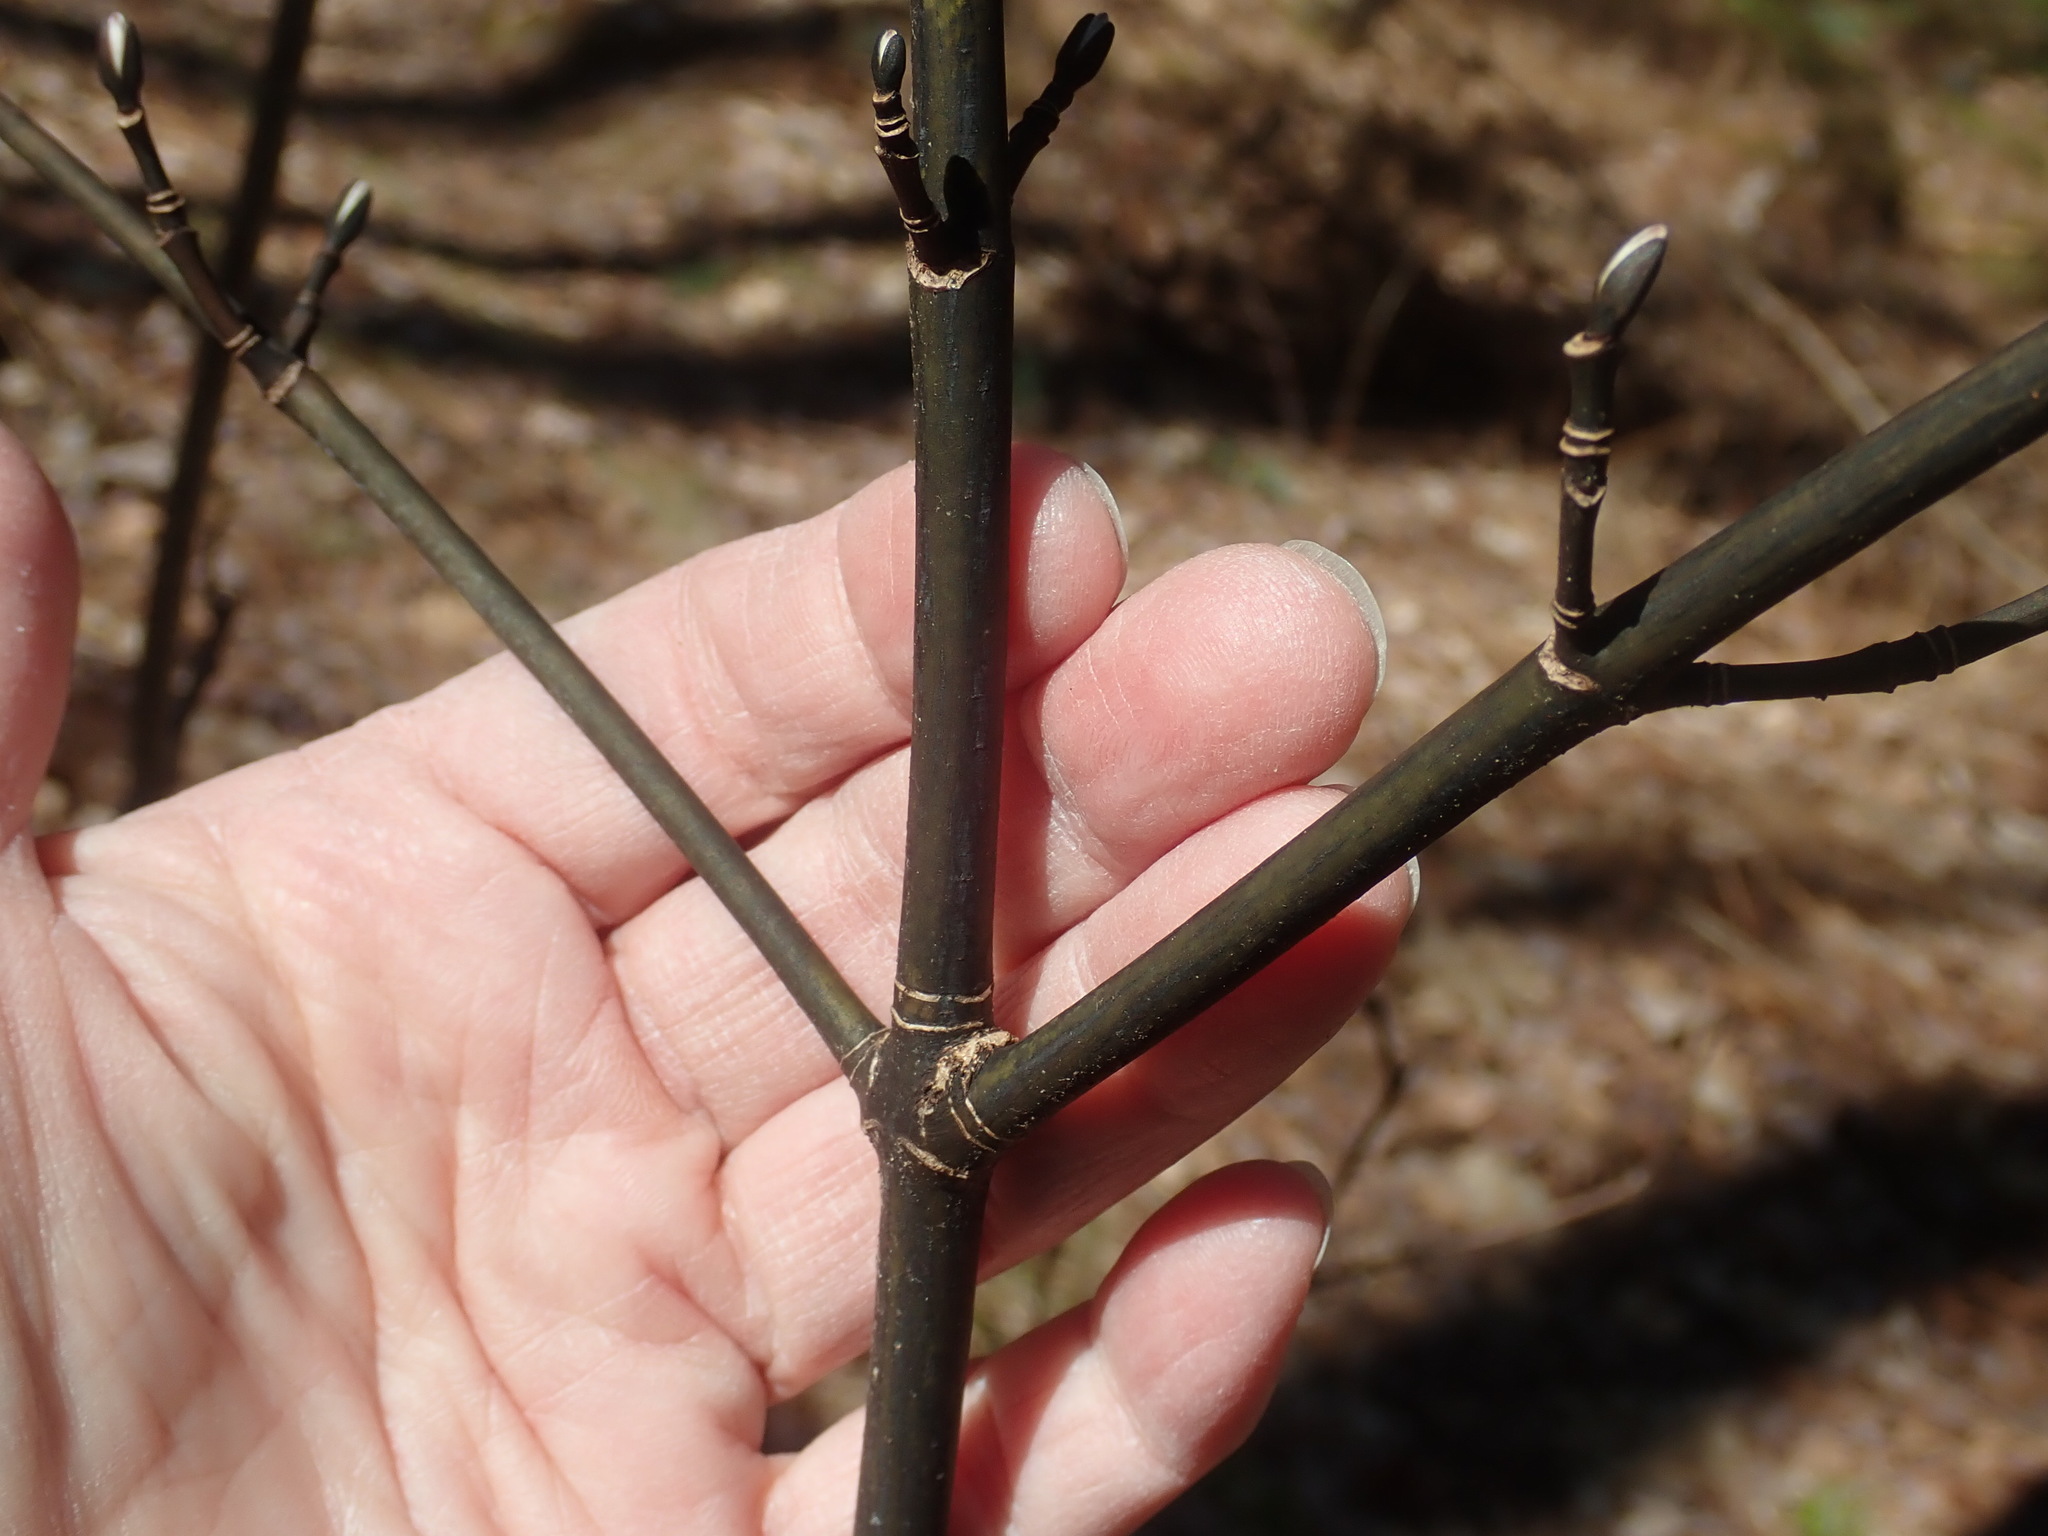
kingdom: Plantae
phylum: Tracheophyta
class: Magnoliopsida
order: Sapindales
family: Sapindaceae
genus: Acer
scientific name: Acer pensylvanicum
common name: Moosewood
